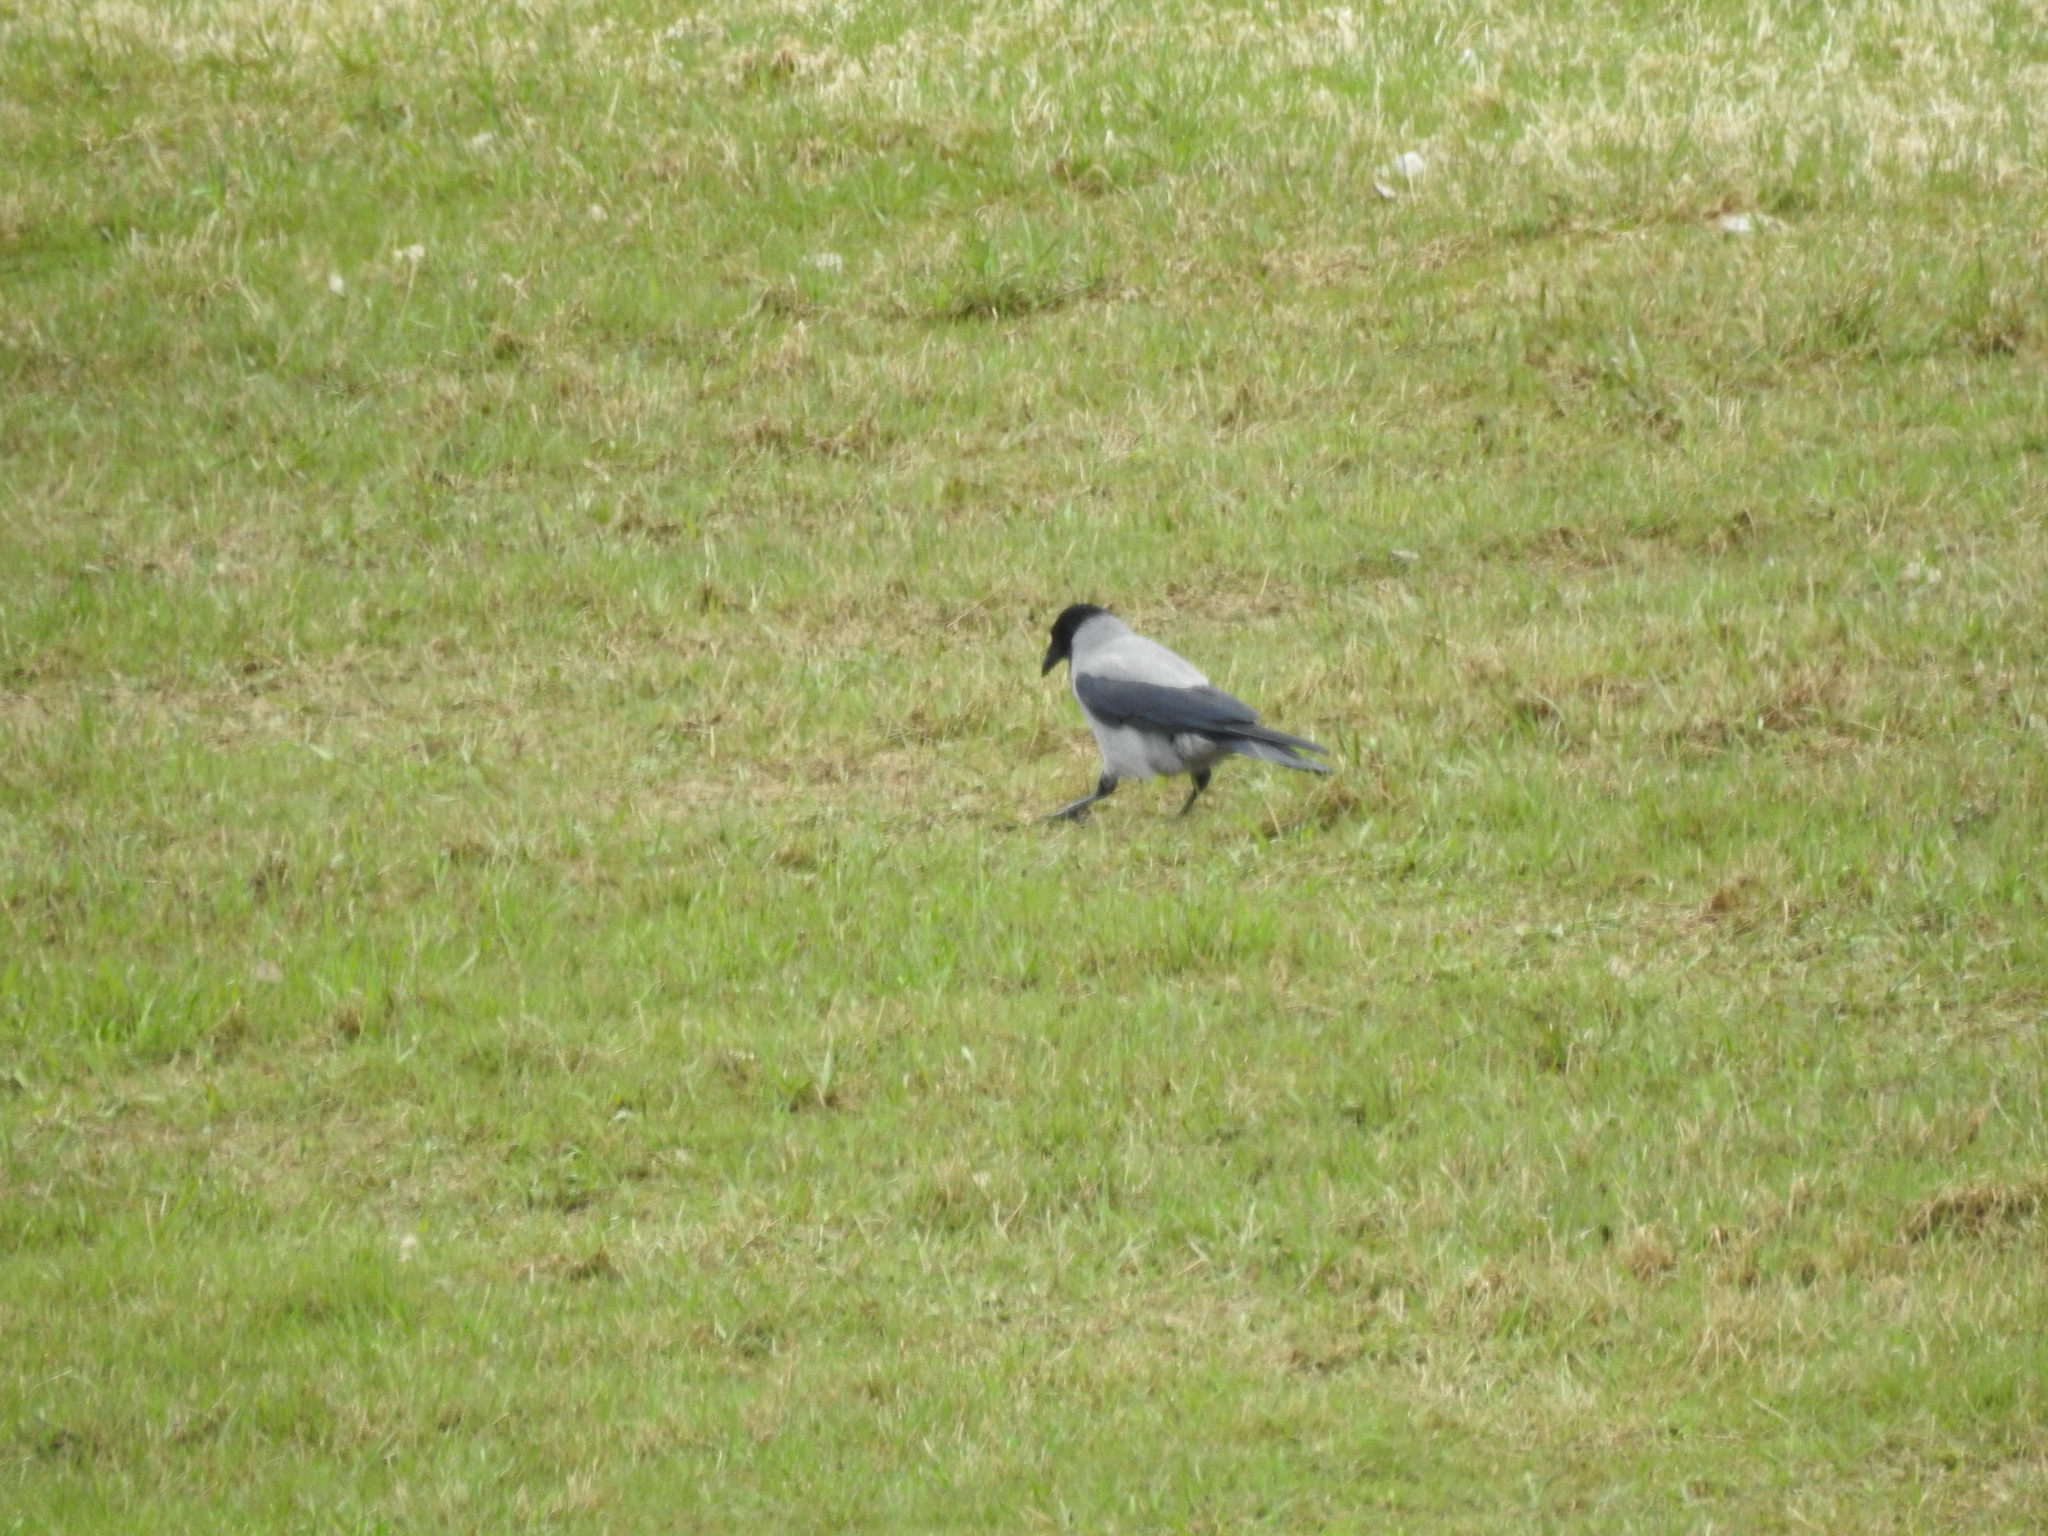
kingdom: Animalia
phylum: Chordata
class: Aves
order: Passeriformes
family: Corvidae
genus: Corvus
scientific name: Corvus cornix
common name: Hooded crow
